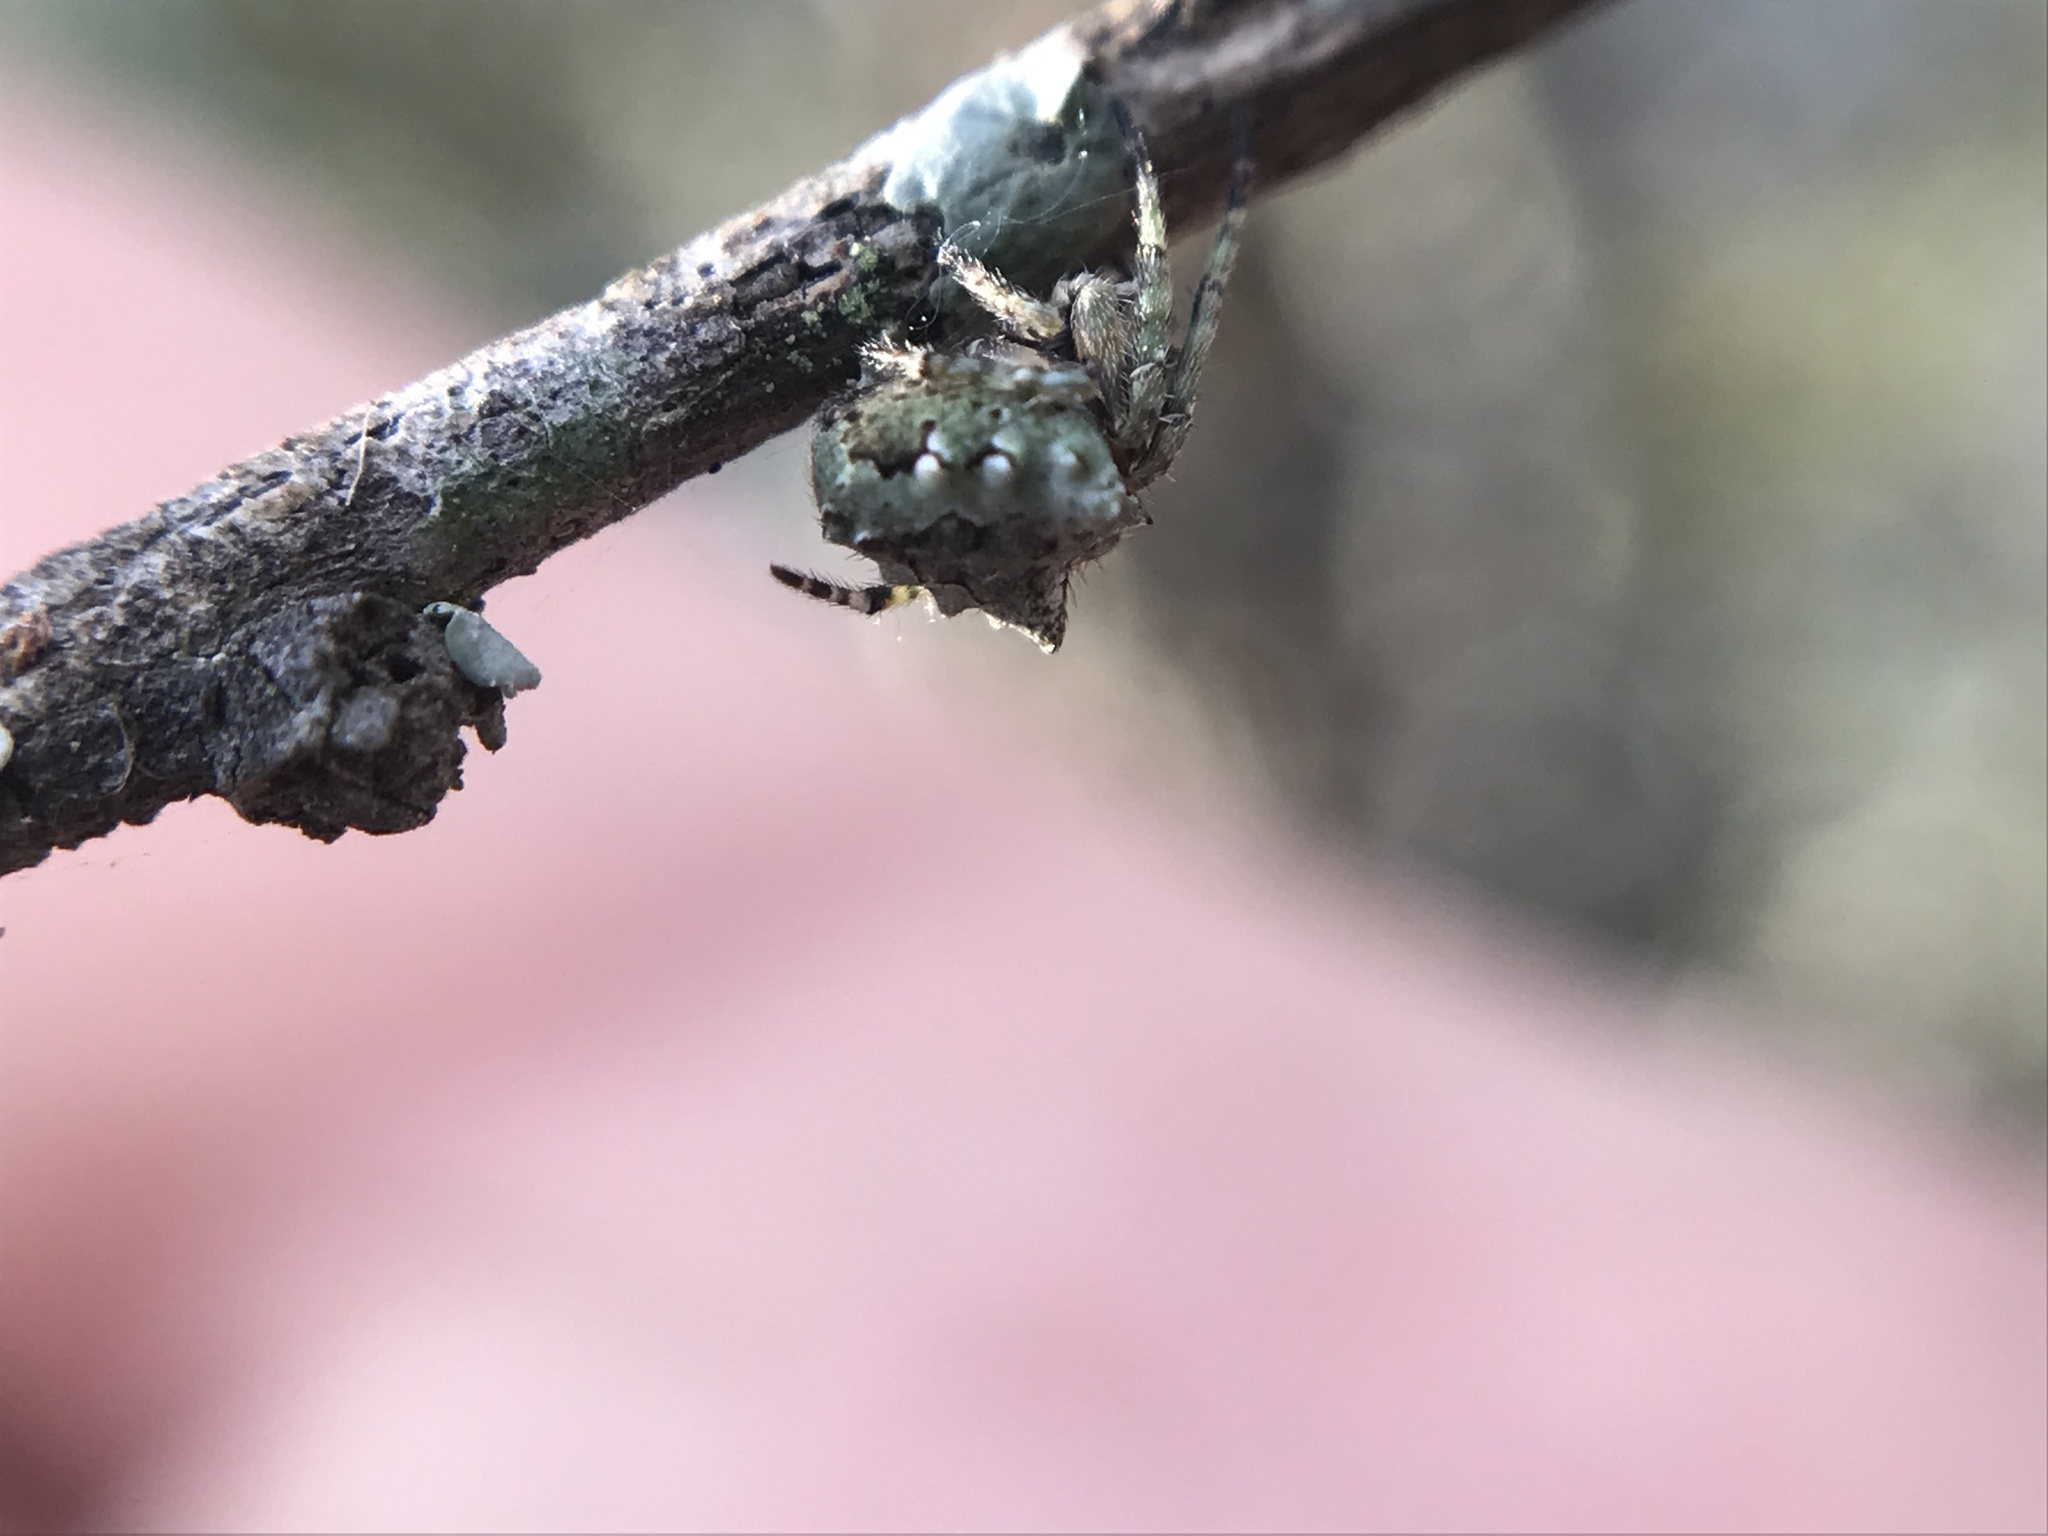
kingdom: Animalia
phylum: Arthropoda
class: Arachnida
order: Araneae
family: Araneidae
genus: Parawixia
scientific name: Parawixia audax
